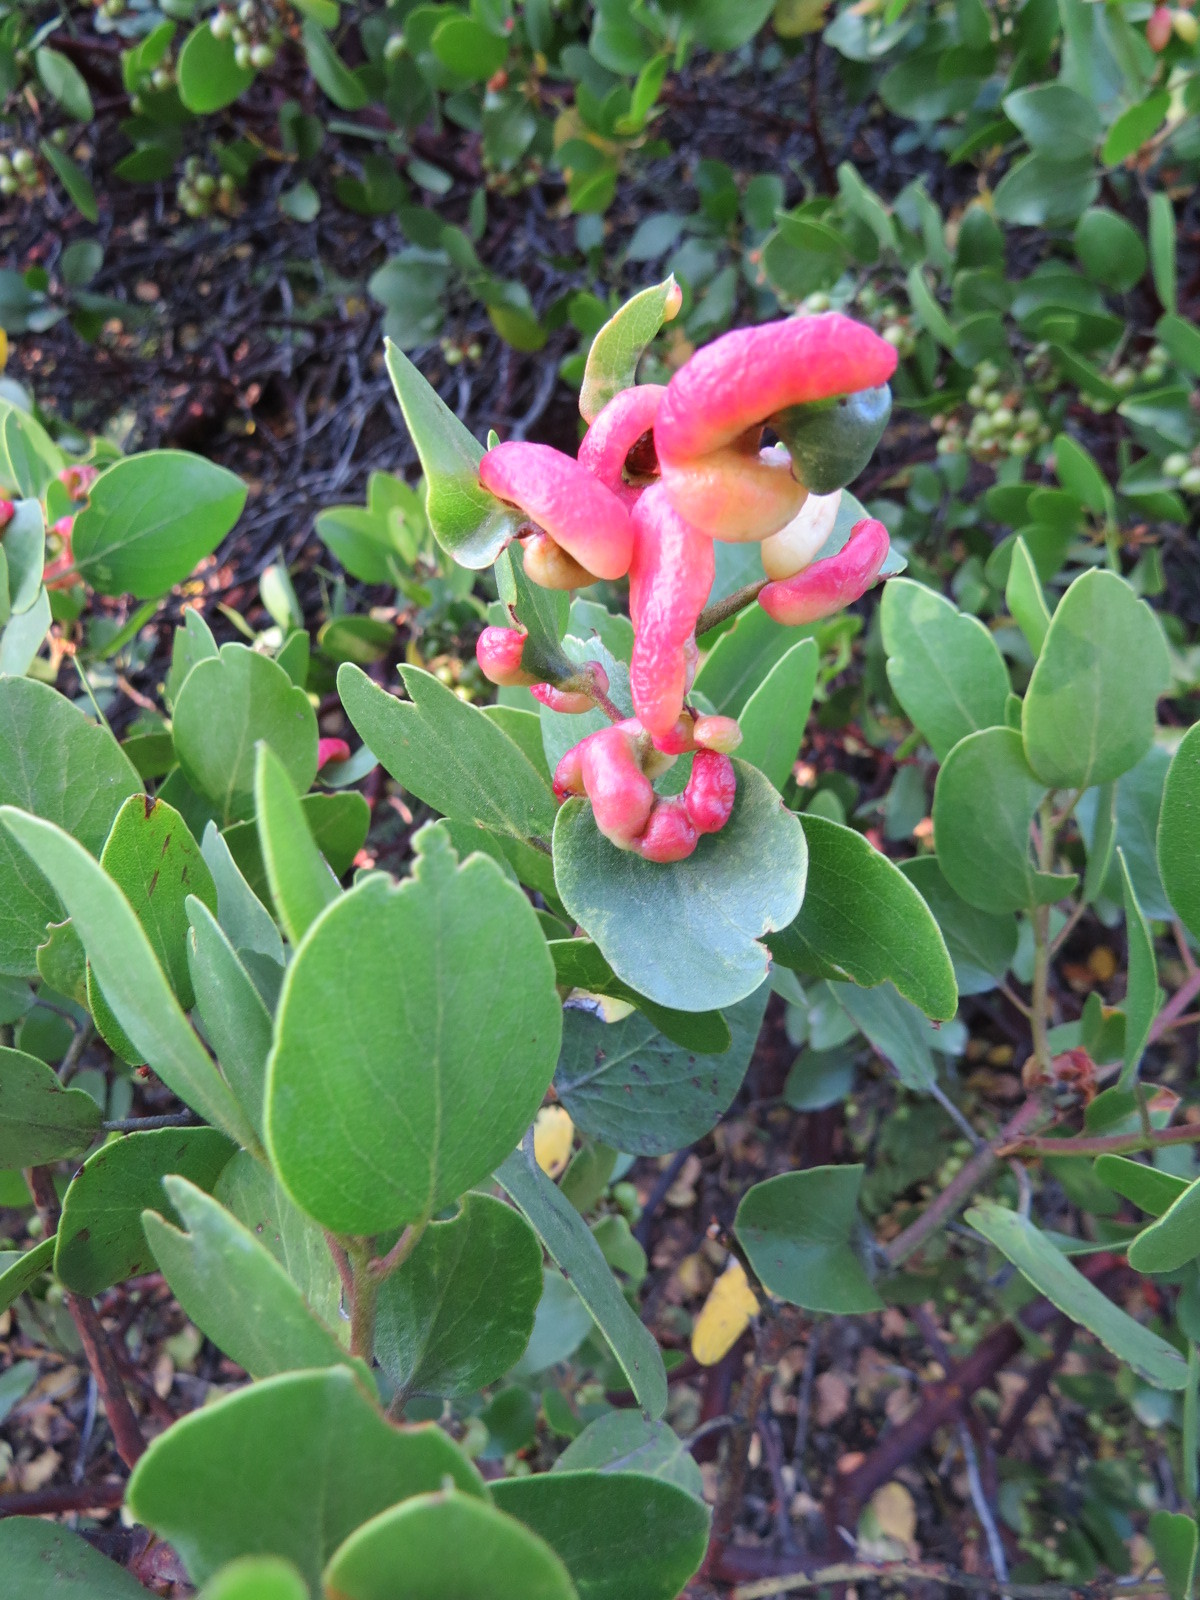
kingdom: Animalia
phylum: Arthropoda
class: Insecta
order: Hemiptera
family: Aphididae
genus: Tamalia
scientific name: Tamalia coweni
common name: Manzanita leafgall aphid
